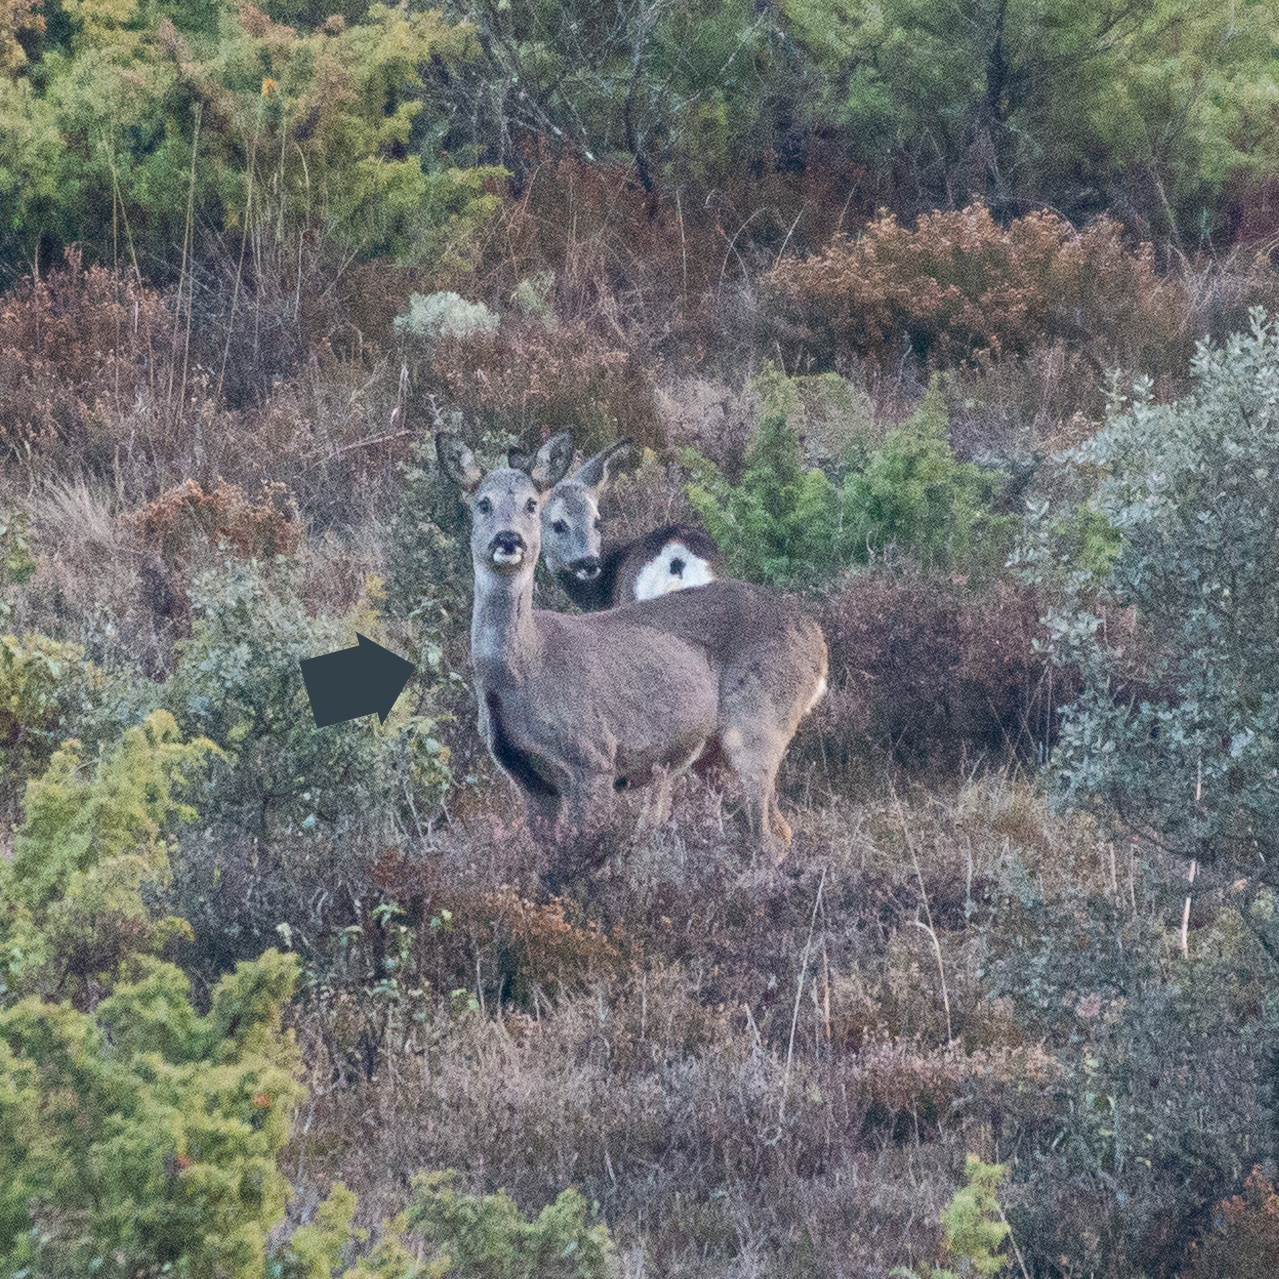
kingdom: Animalia
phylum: Chordata
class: Mammalia
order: Artiodactyla
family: Cervidae
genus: Capreolus
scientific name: Capreolus capreolus
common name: Western roe deer
